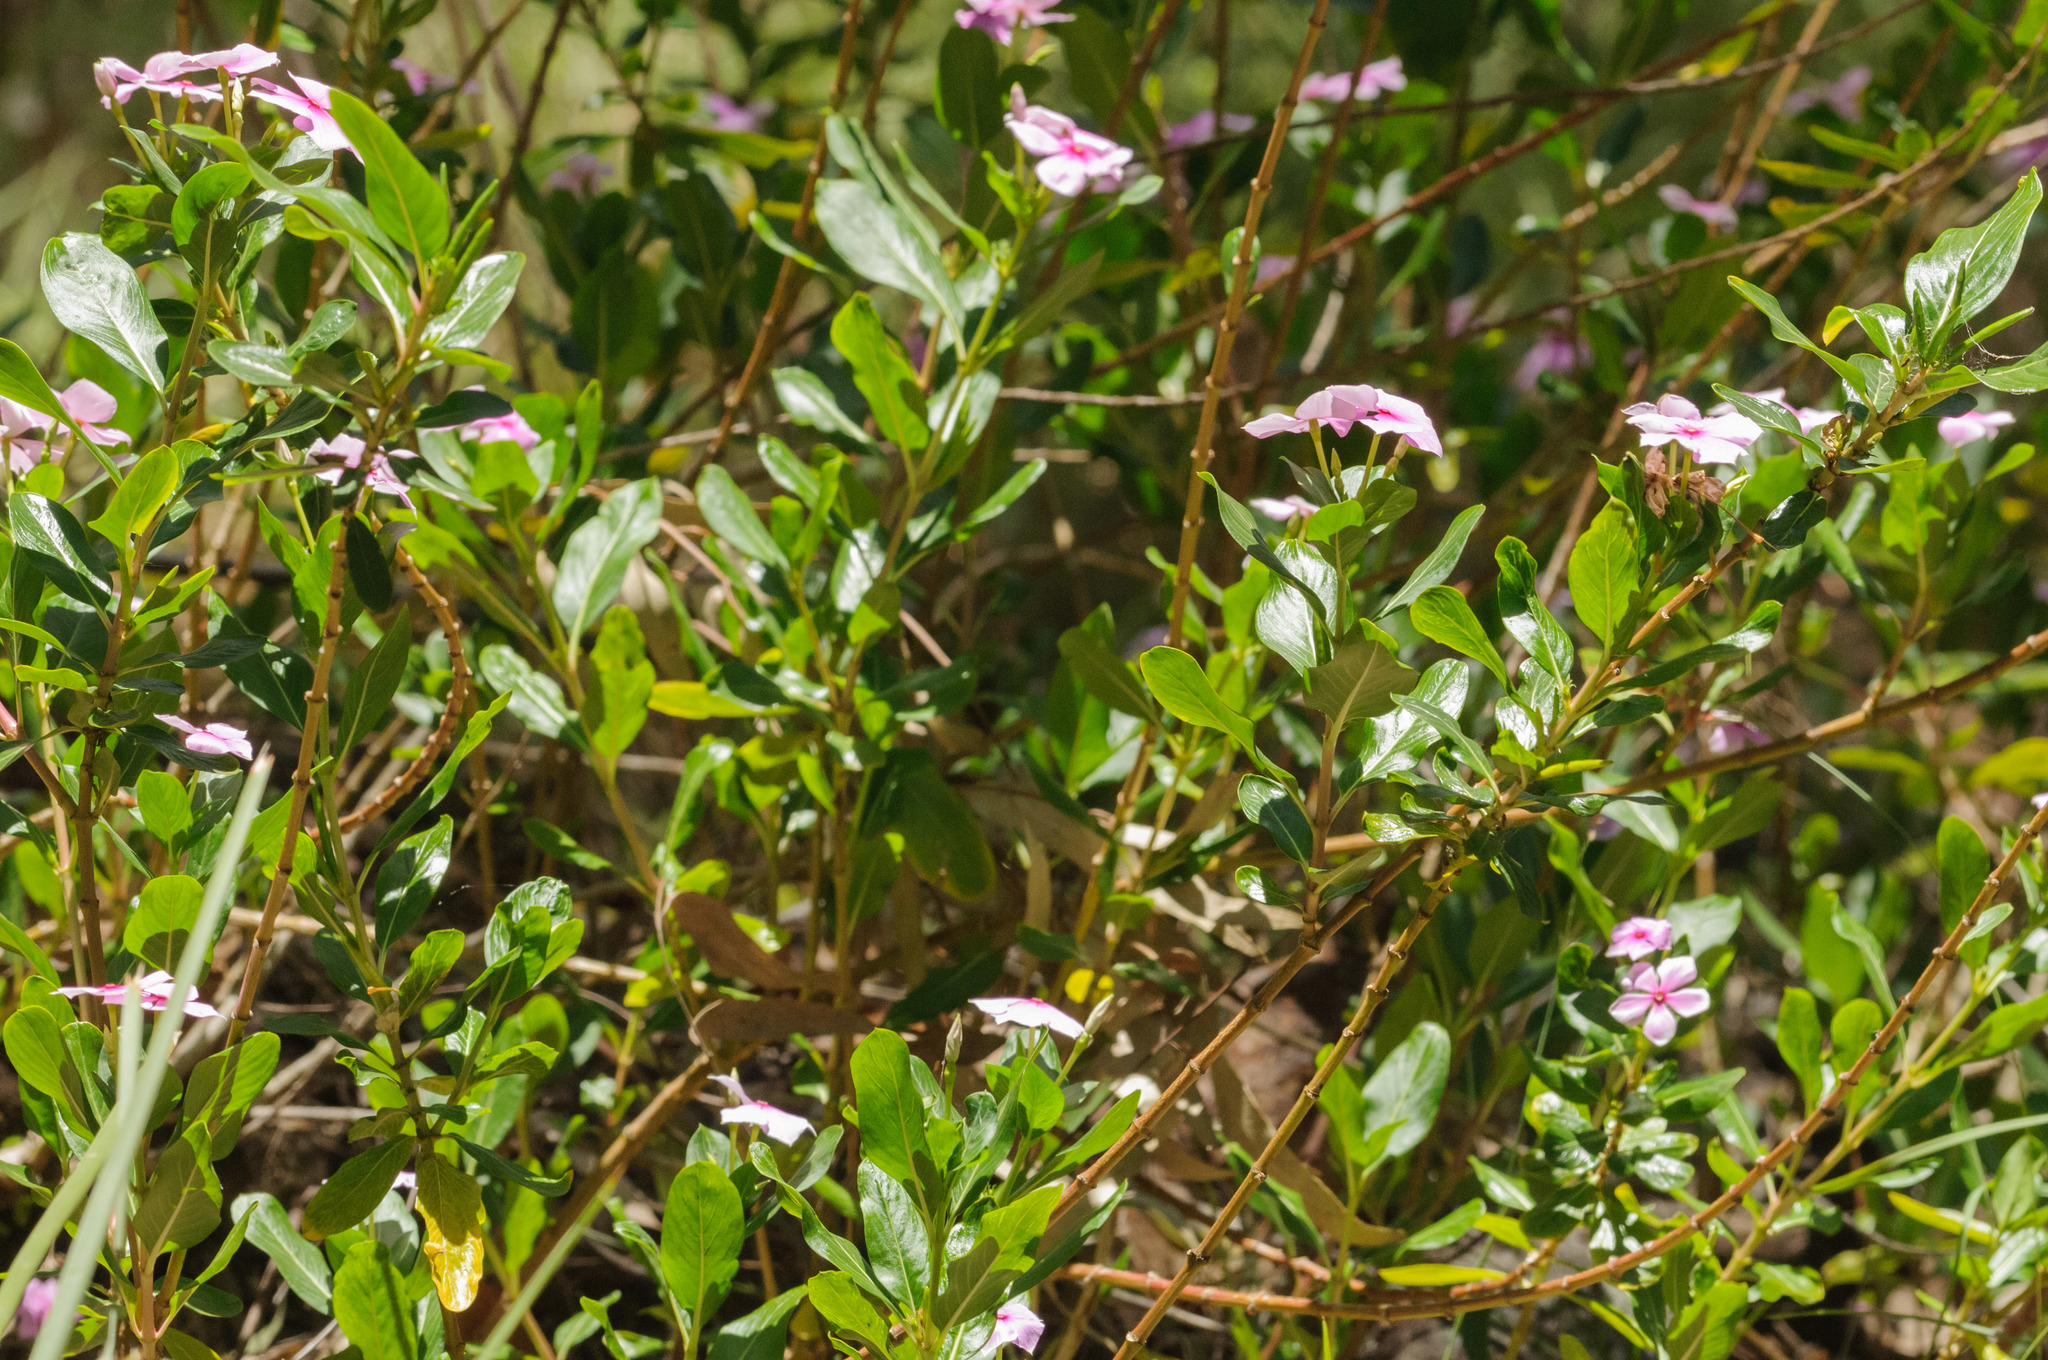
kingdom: Plantae
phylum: Tracheophyta
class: Magnoliopsida
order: Gentianales
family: Apocynaceae
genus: Catharanthus
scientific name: Catharanthus roseus
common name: Madagascar periwinkle
